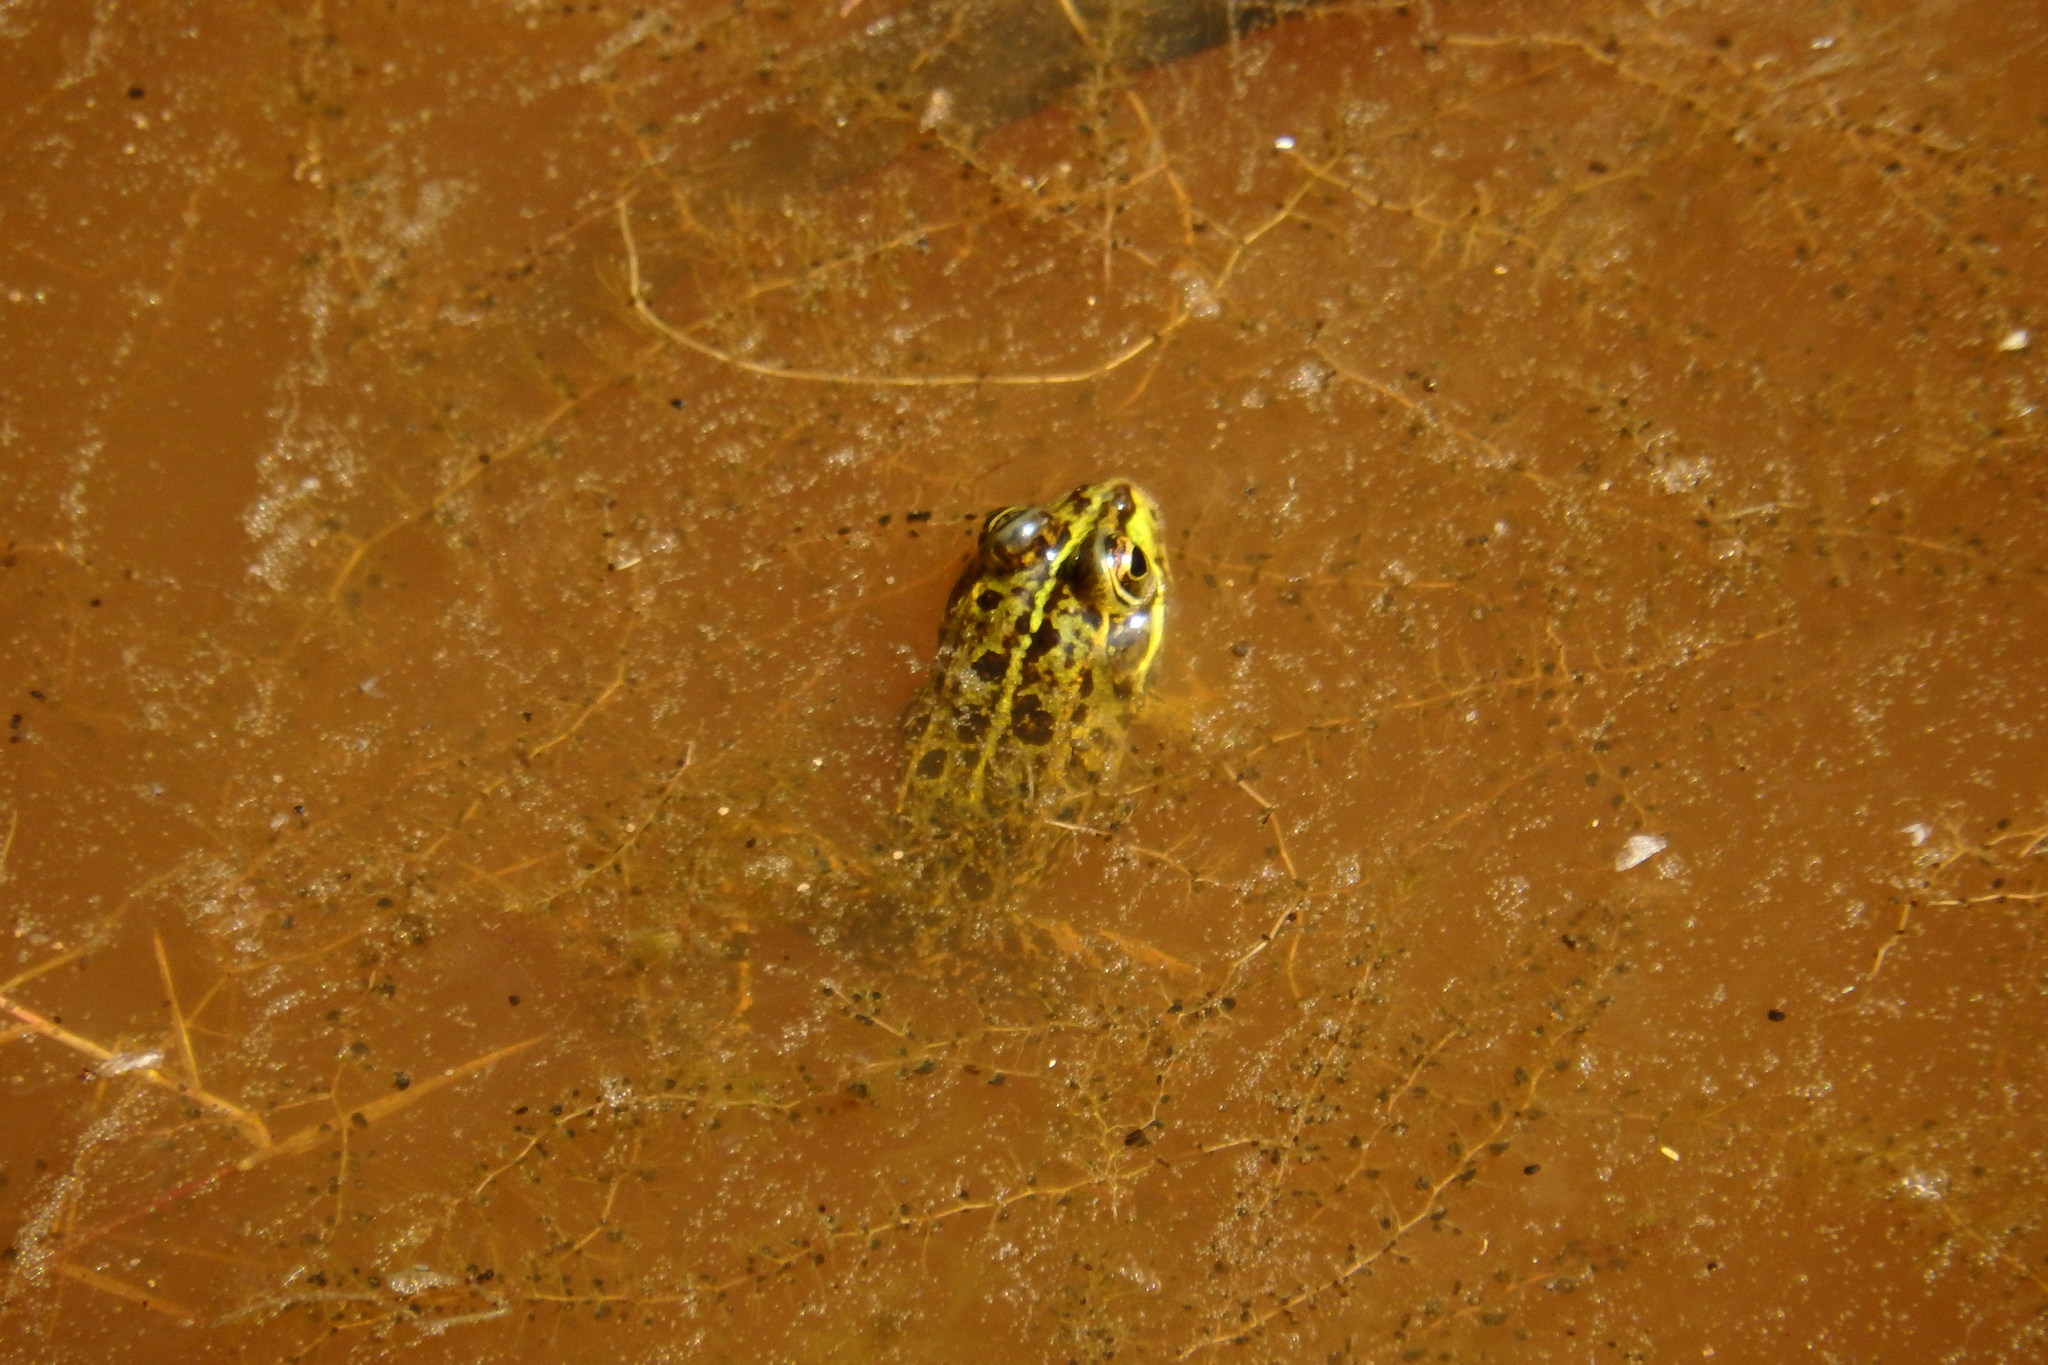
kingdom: Animalia
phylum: Chordata
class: Amphibia
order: Anura
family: Ranidae
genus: Pelophylax
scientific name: Pelophylax perezi
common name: Perez's frog
